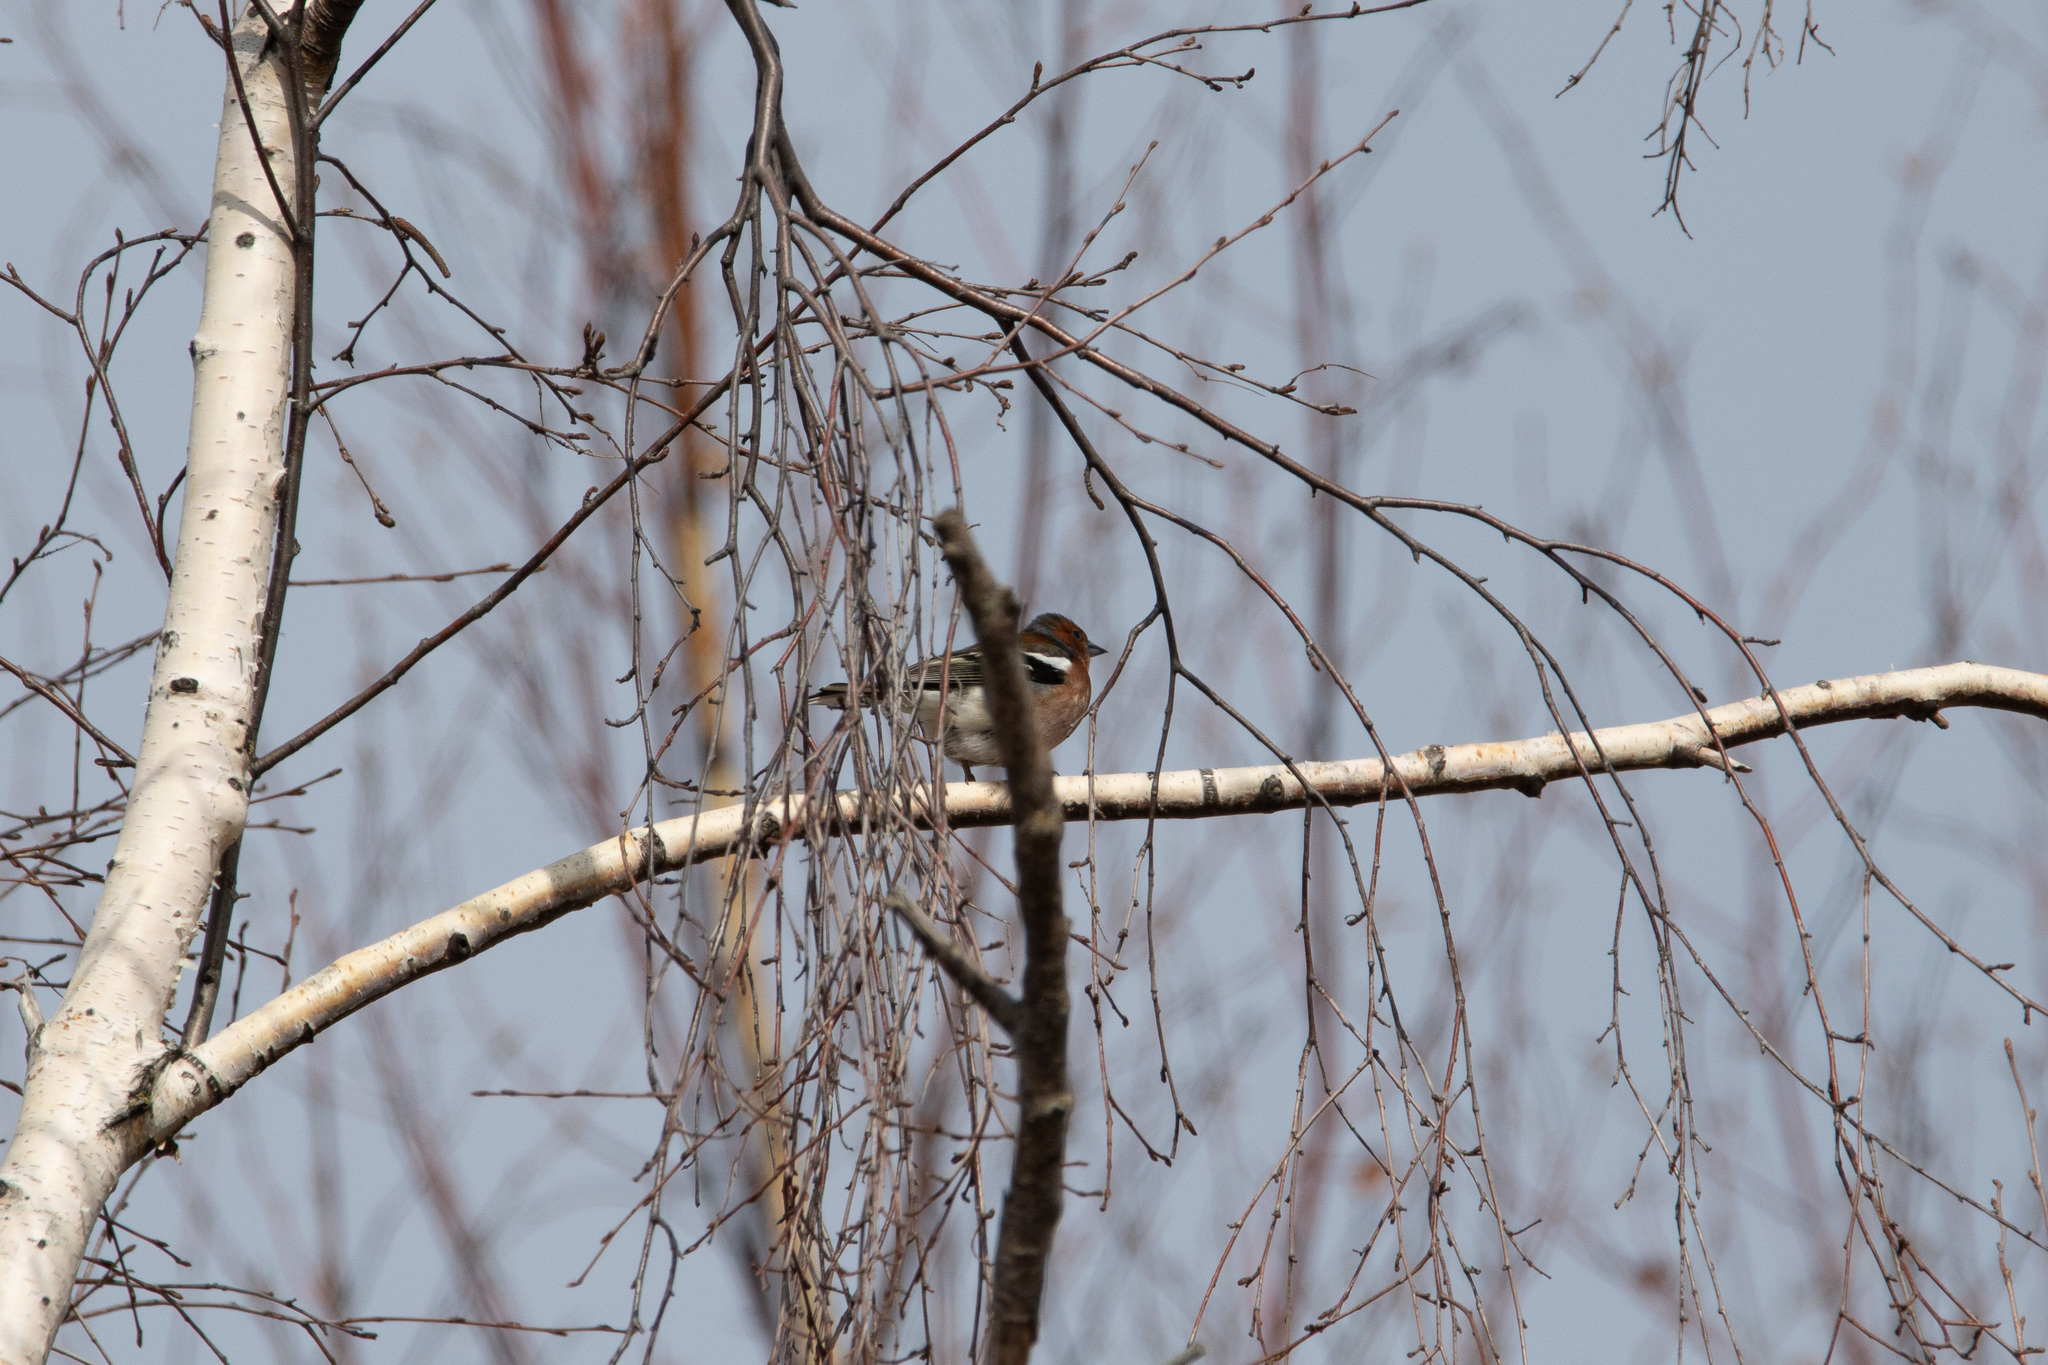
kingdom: Animalia
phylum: Chordata
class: Aves
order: Passeriformes
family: Fringillidae
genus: Fringilla
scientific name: Fringilla coelebs
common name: Common chaffinch
